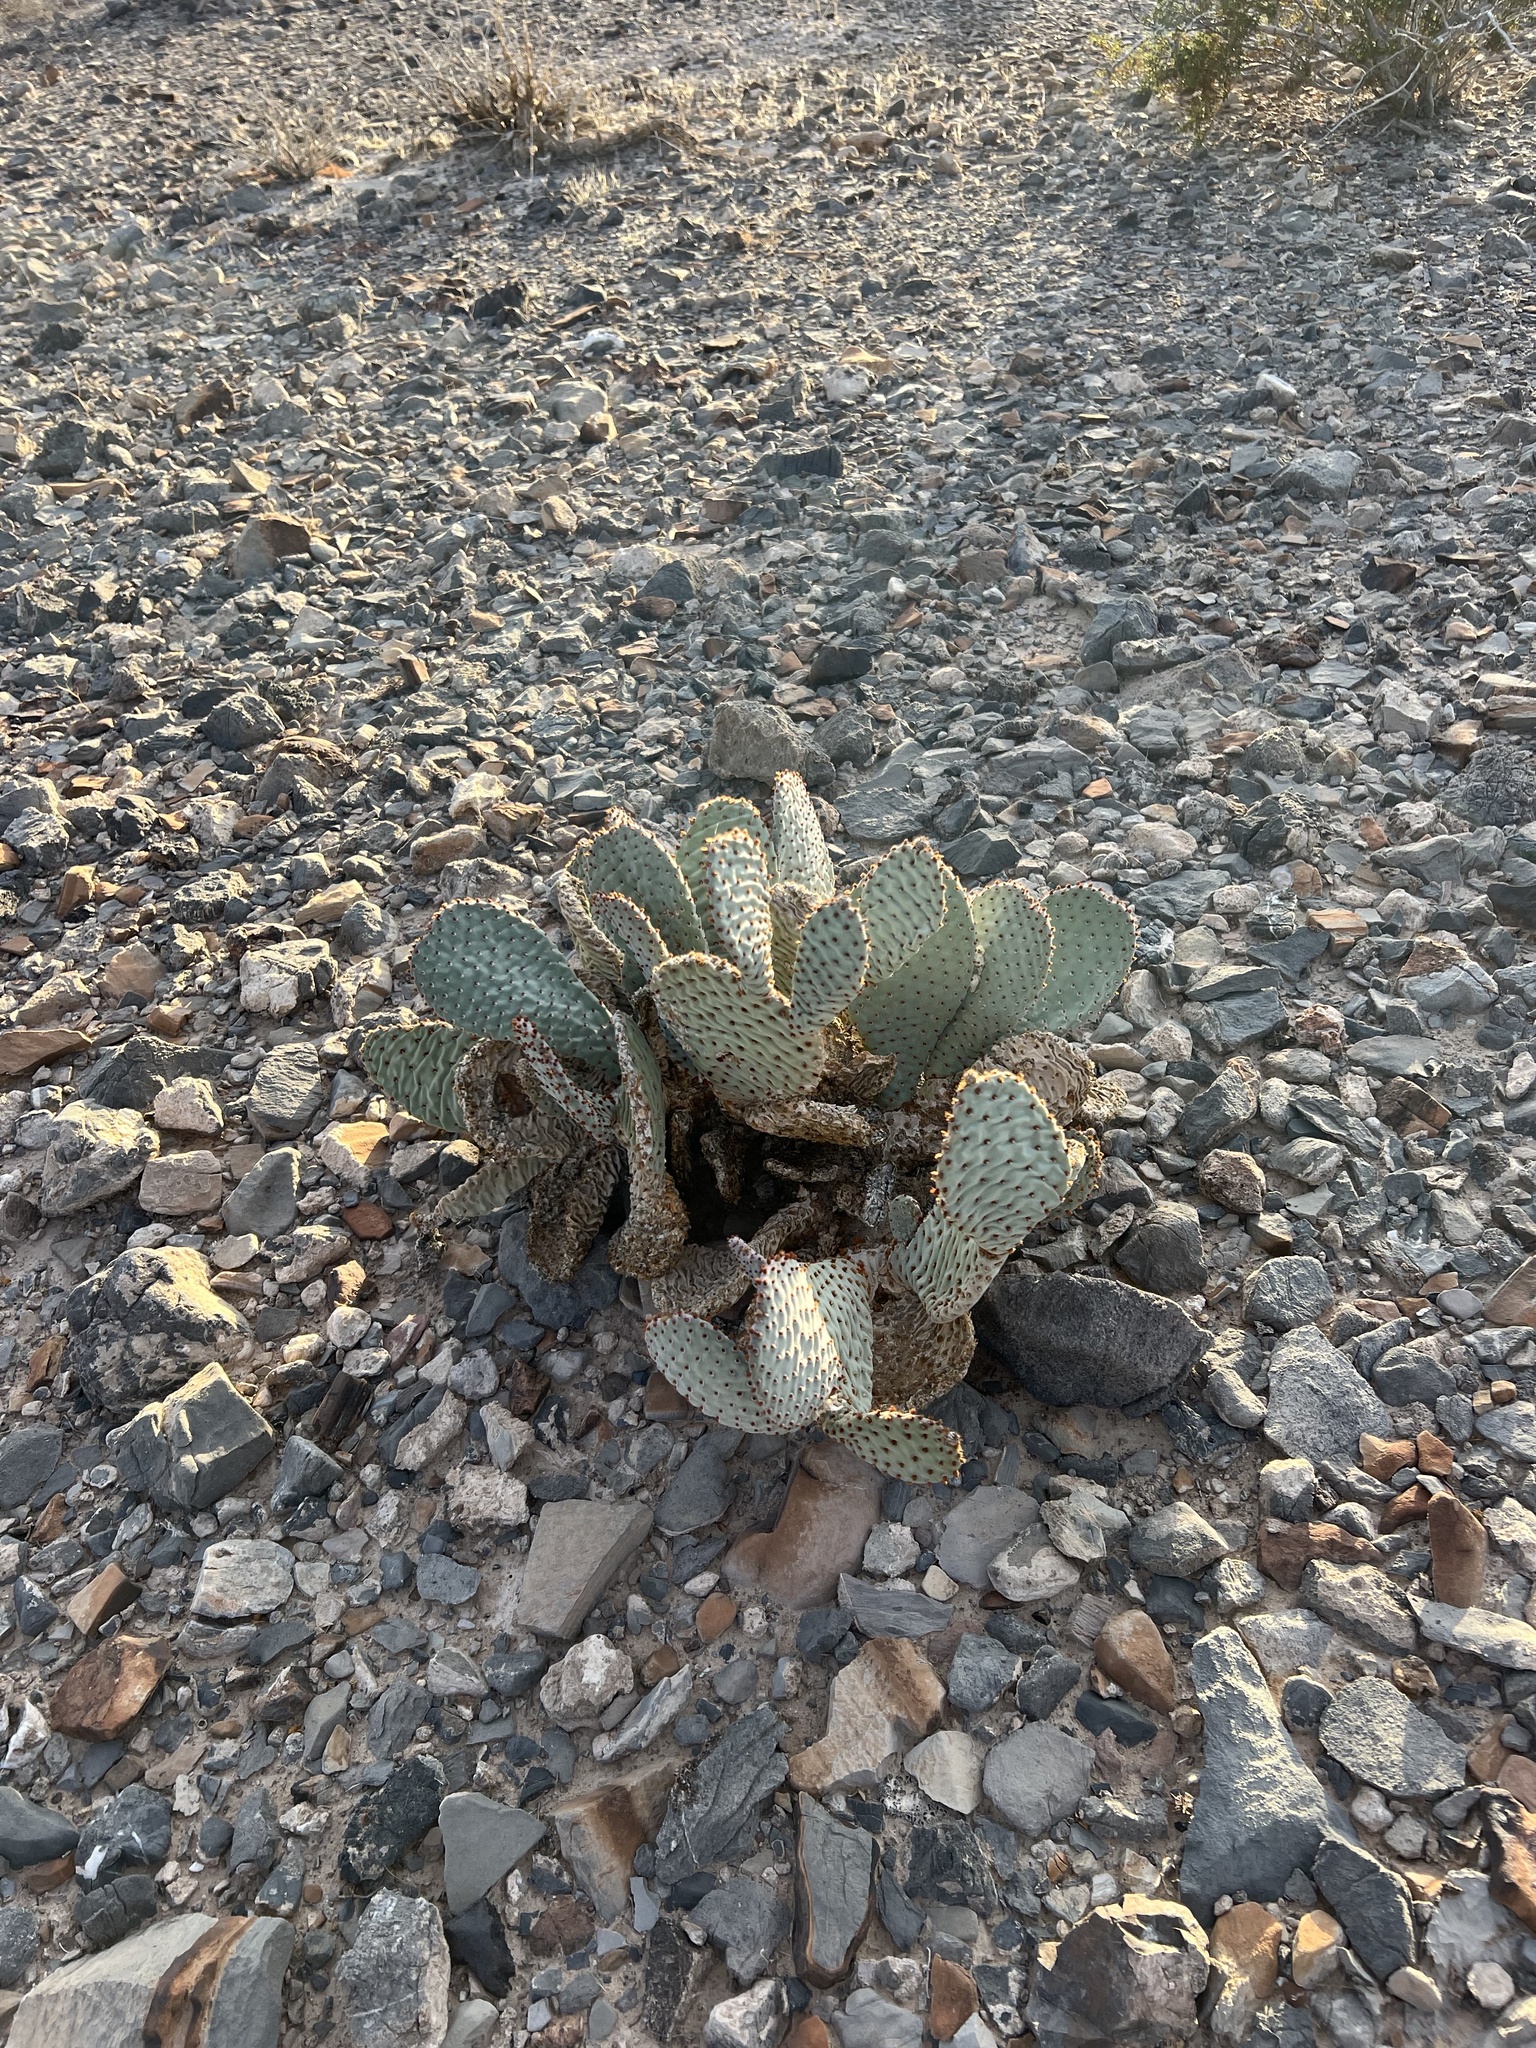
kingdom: Plantae
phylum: Tracheophyta
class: Magnoliopsida
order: Caryophyllales
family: Cactaceae
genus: Opuntia
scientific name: Opuntia basilaris
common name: Beavertail prickly-pear
